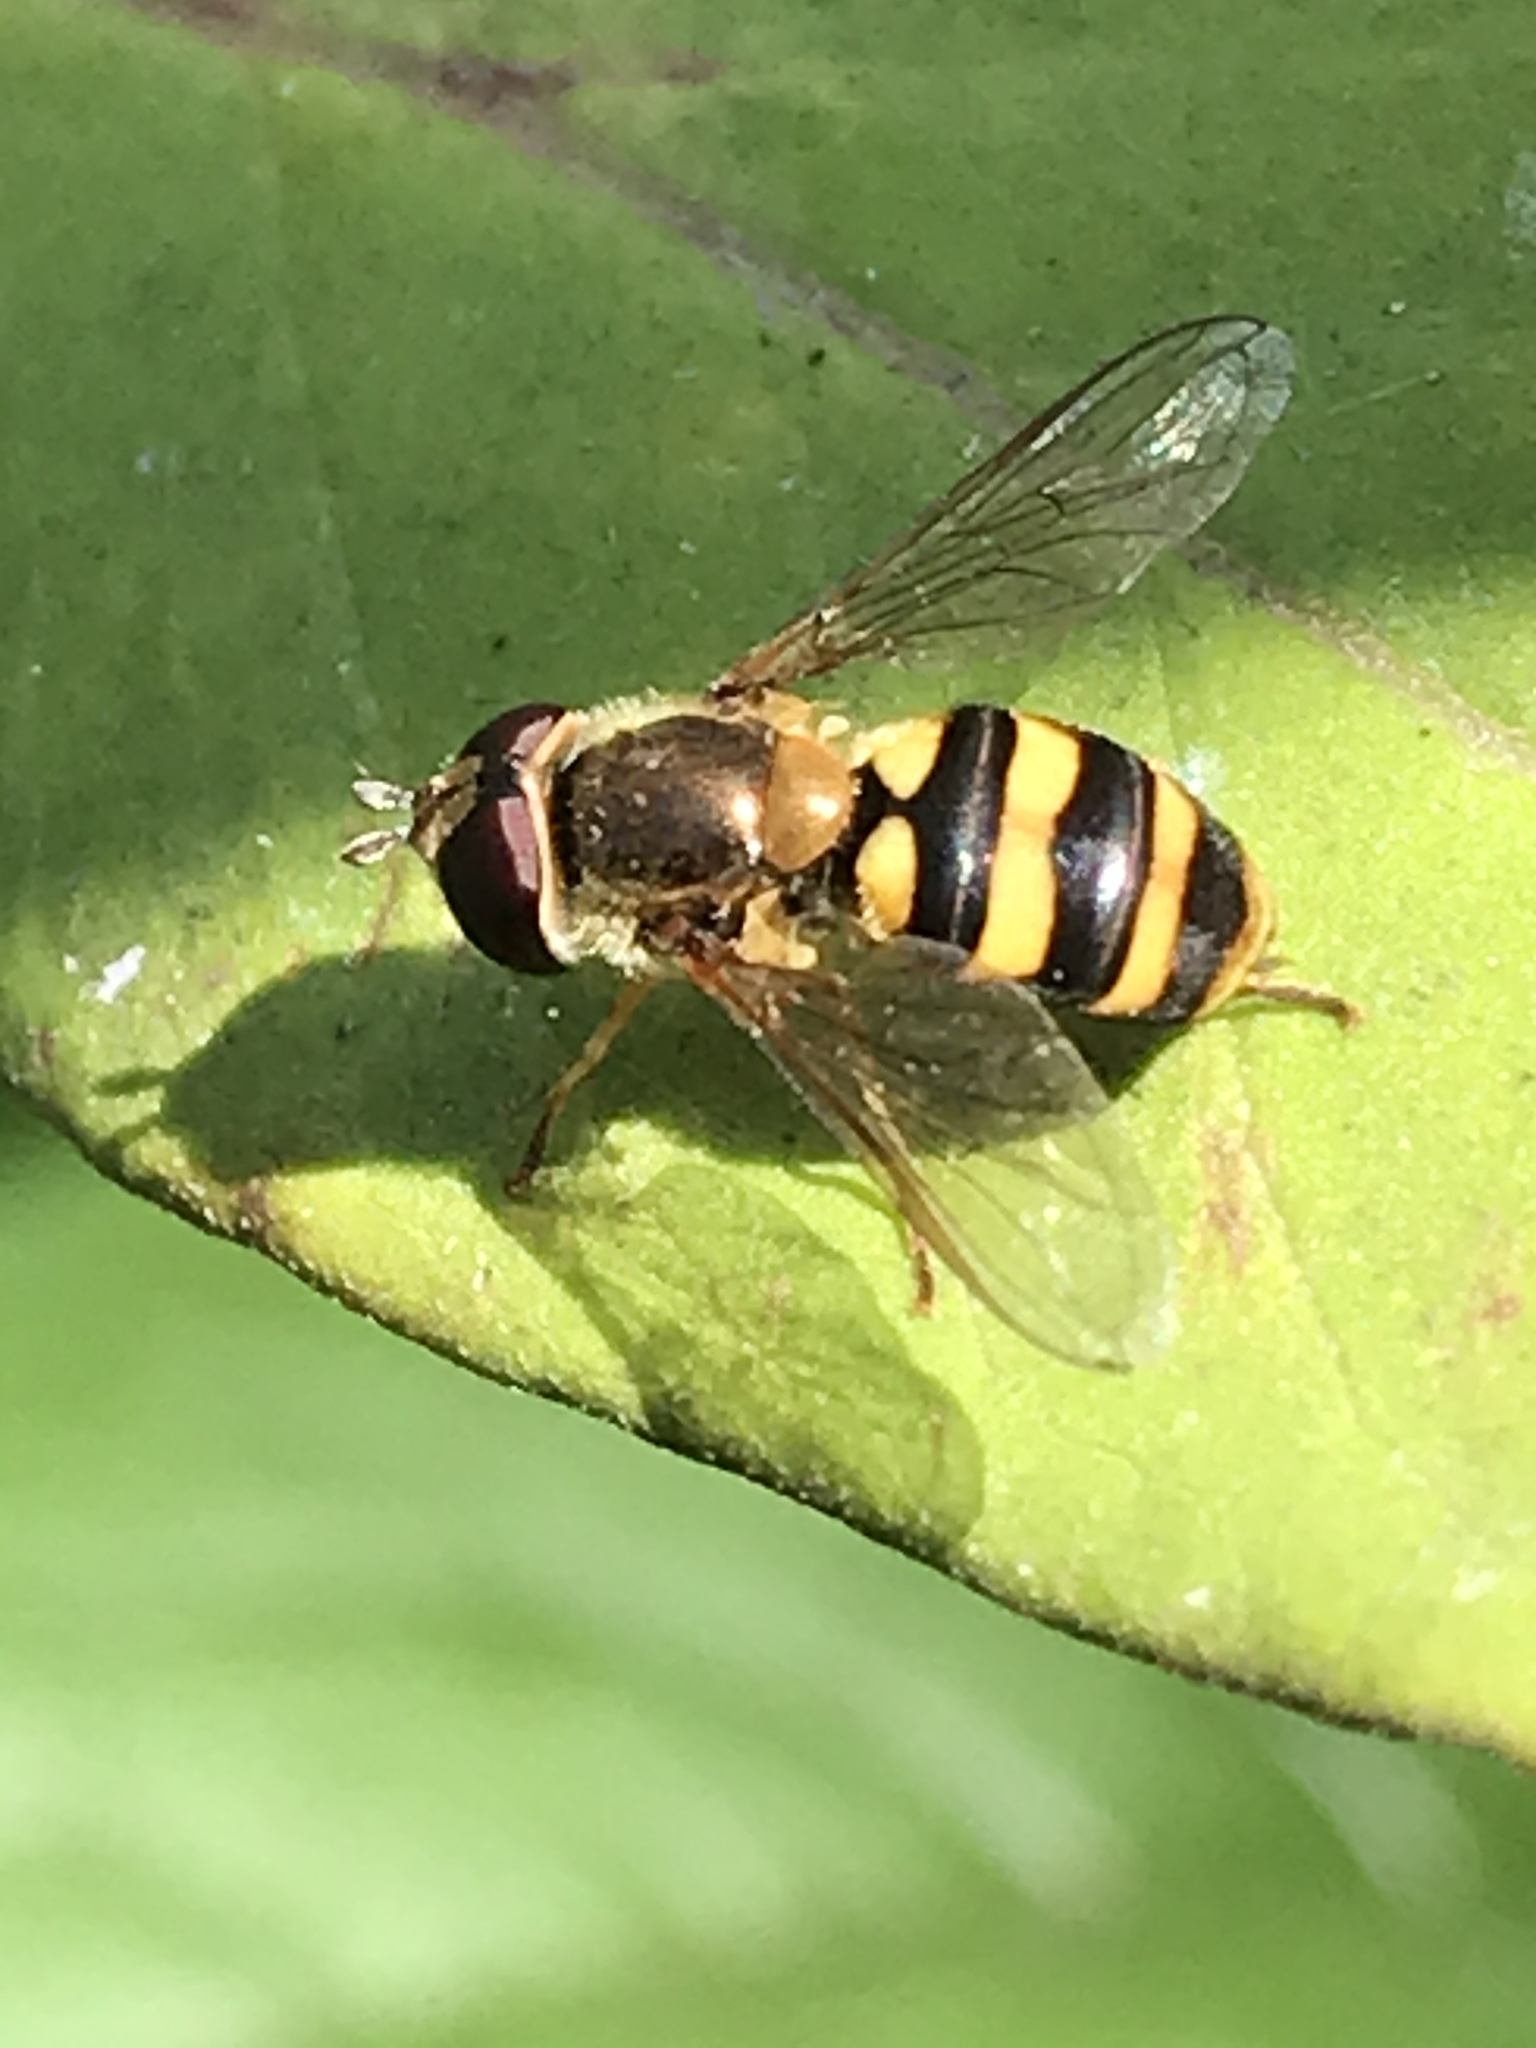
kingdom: Animalia
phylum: Arthropoda
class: Insecta
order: Diptera
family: Syrphidae
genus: Eupeodes
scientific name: Eupeodes fumipennis
